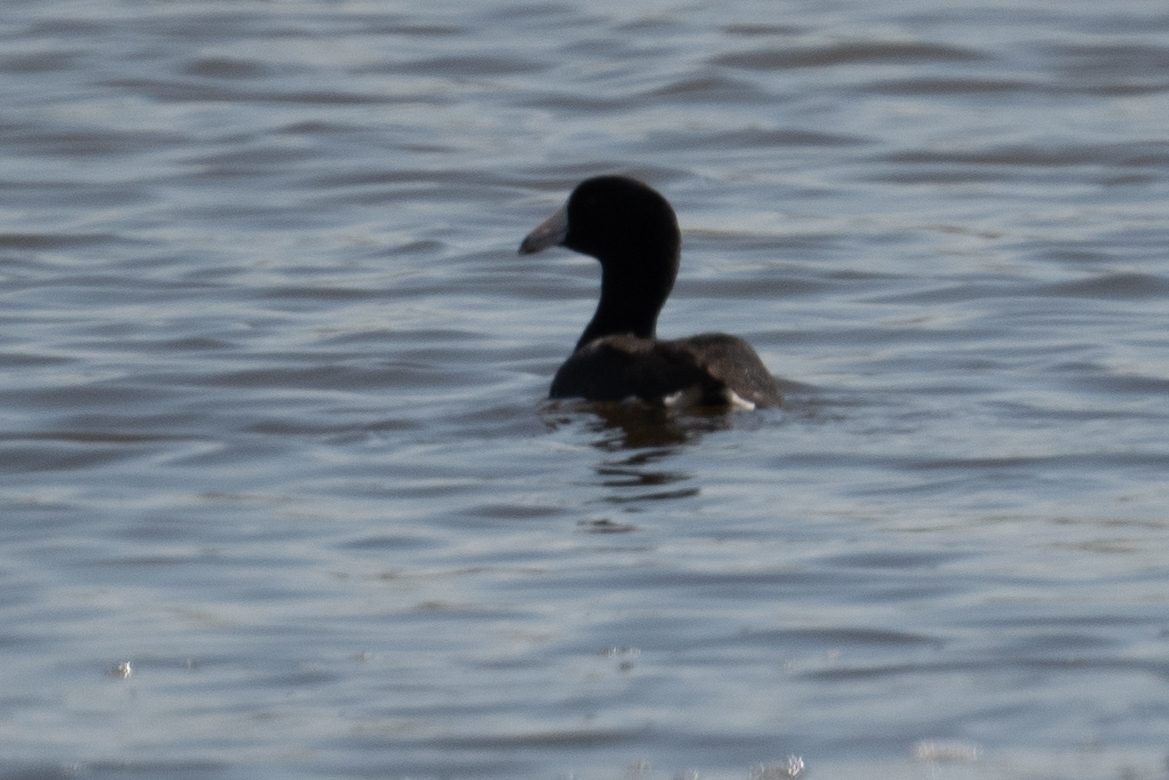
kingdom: Animalia
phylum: Chordata
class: Aves
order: Gruiformes
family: Rallidae
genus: Fulica
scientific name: Fulica americana
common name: American coot
